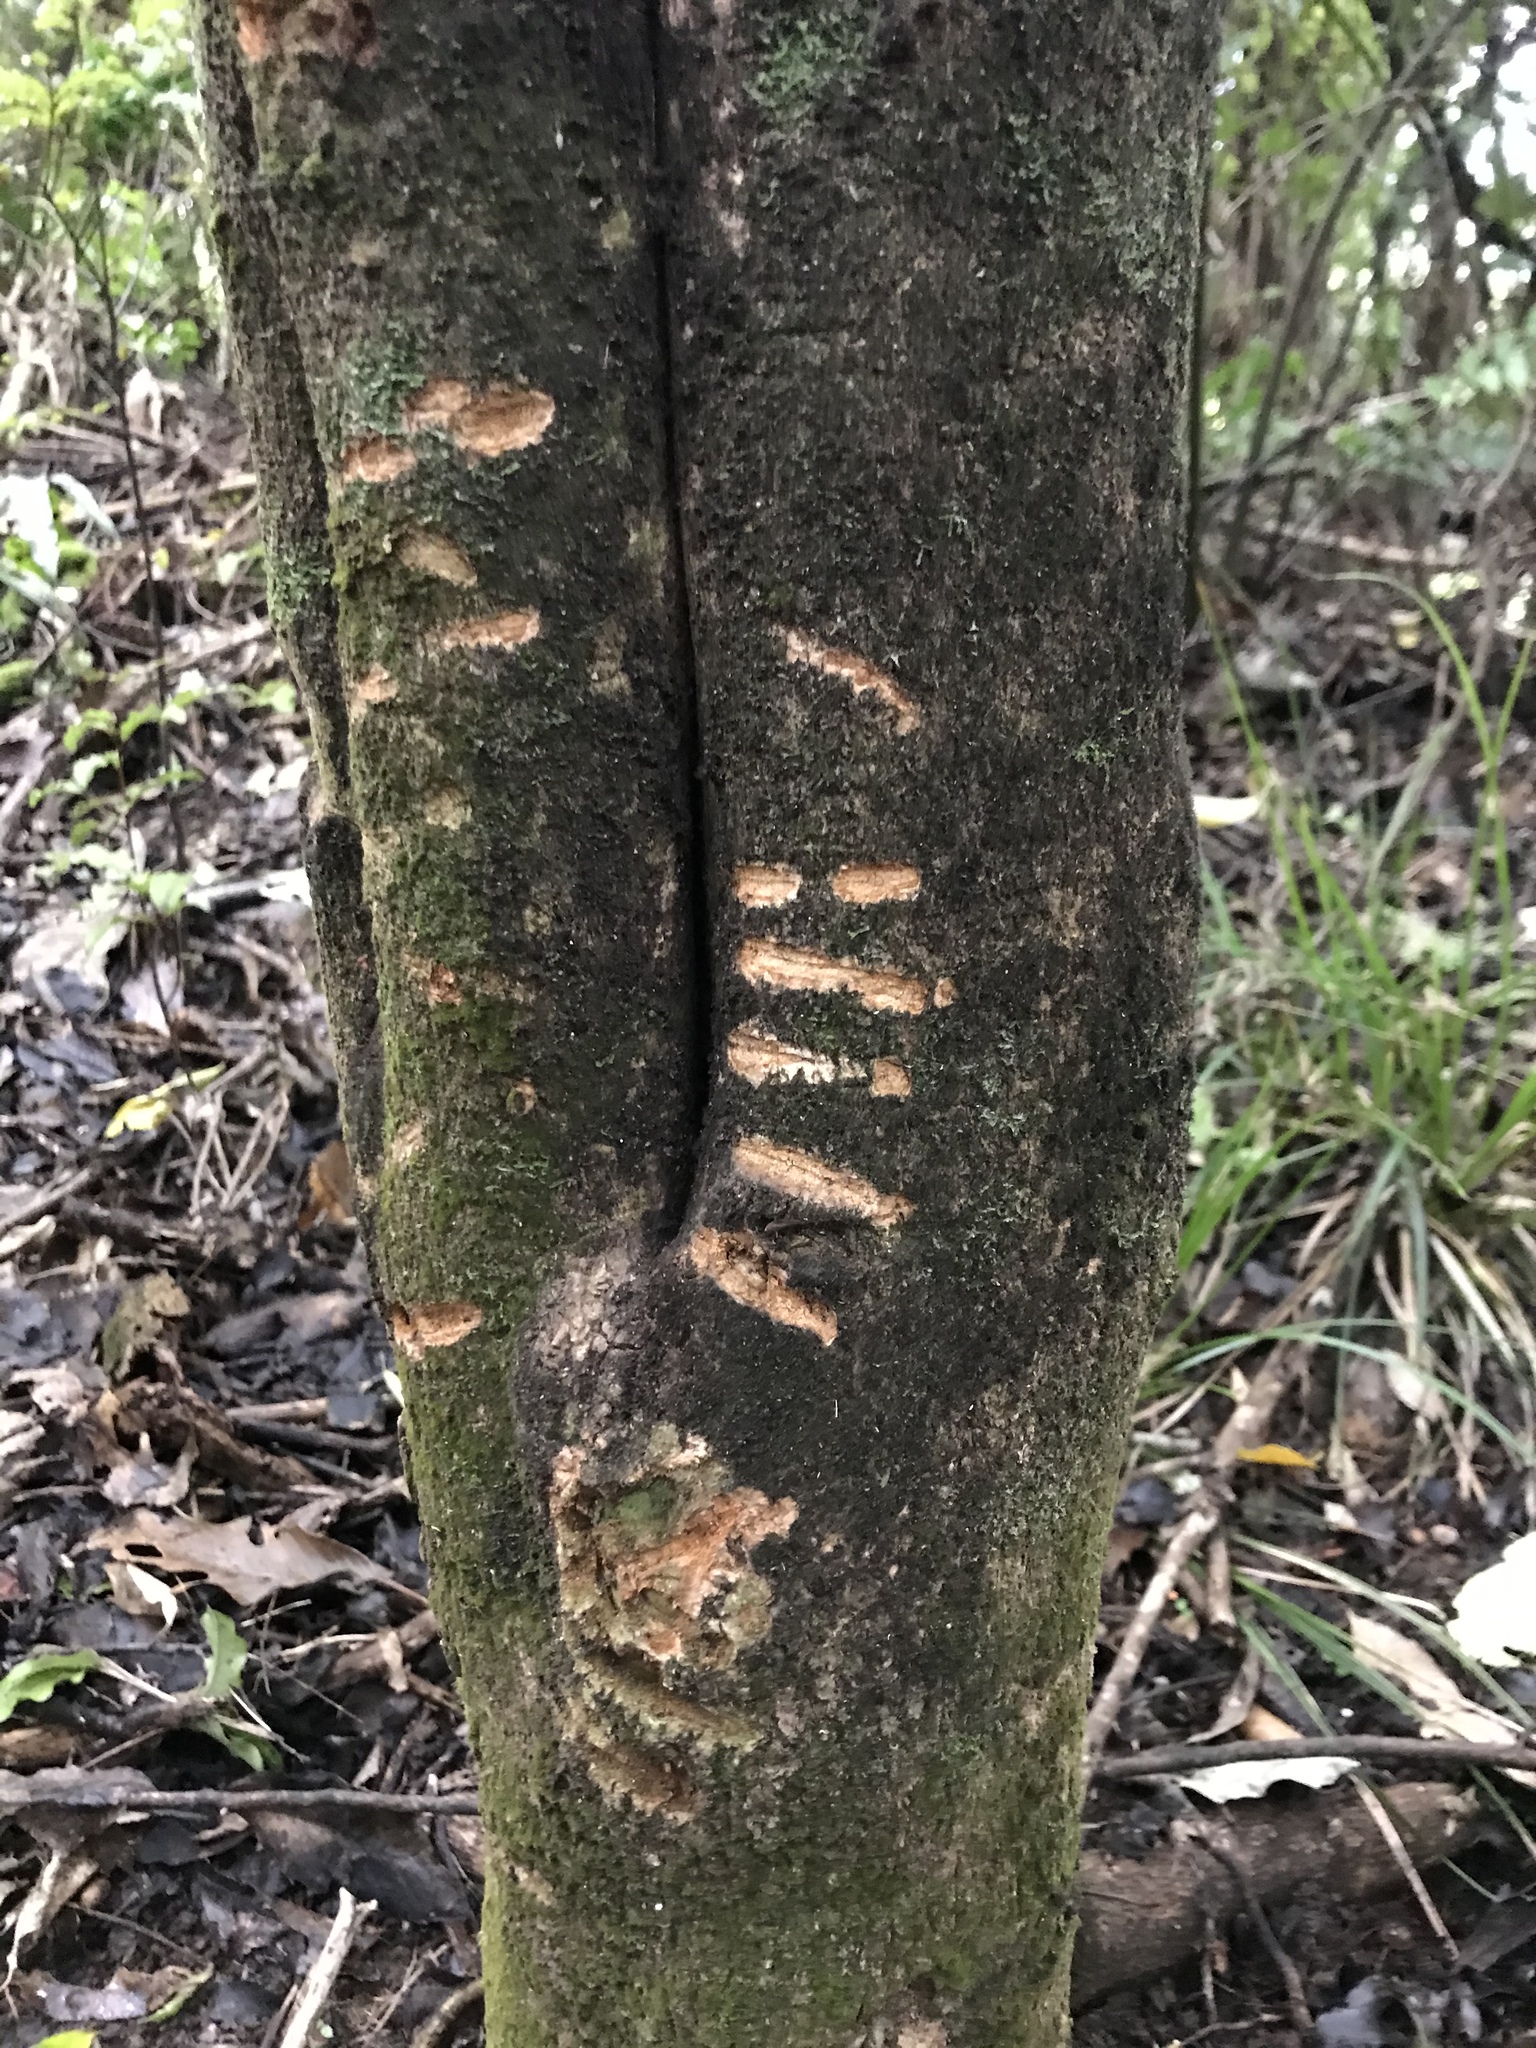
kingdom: Animalia
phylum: Chordata
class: Mammalia
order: Diprotodontia
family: Phalangeridae
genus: Trichosurus
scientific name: Trichosurus vulpecula
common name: Common brushtail
